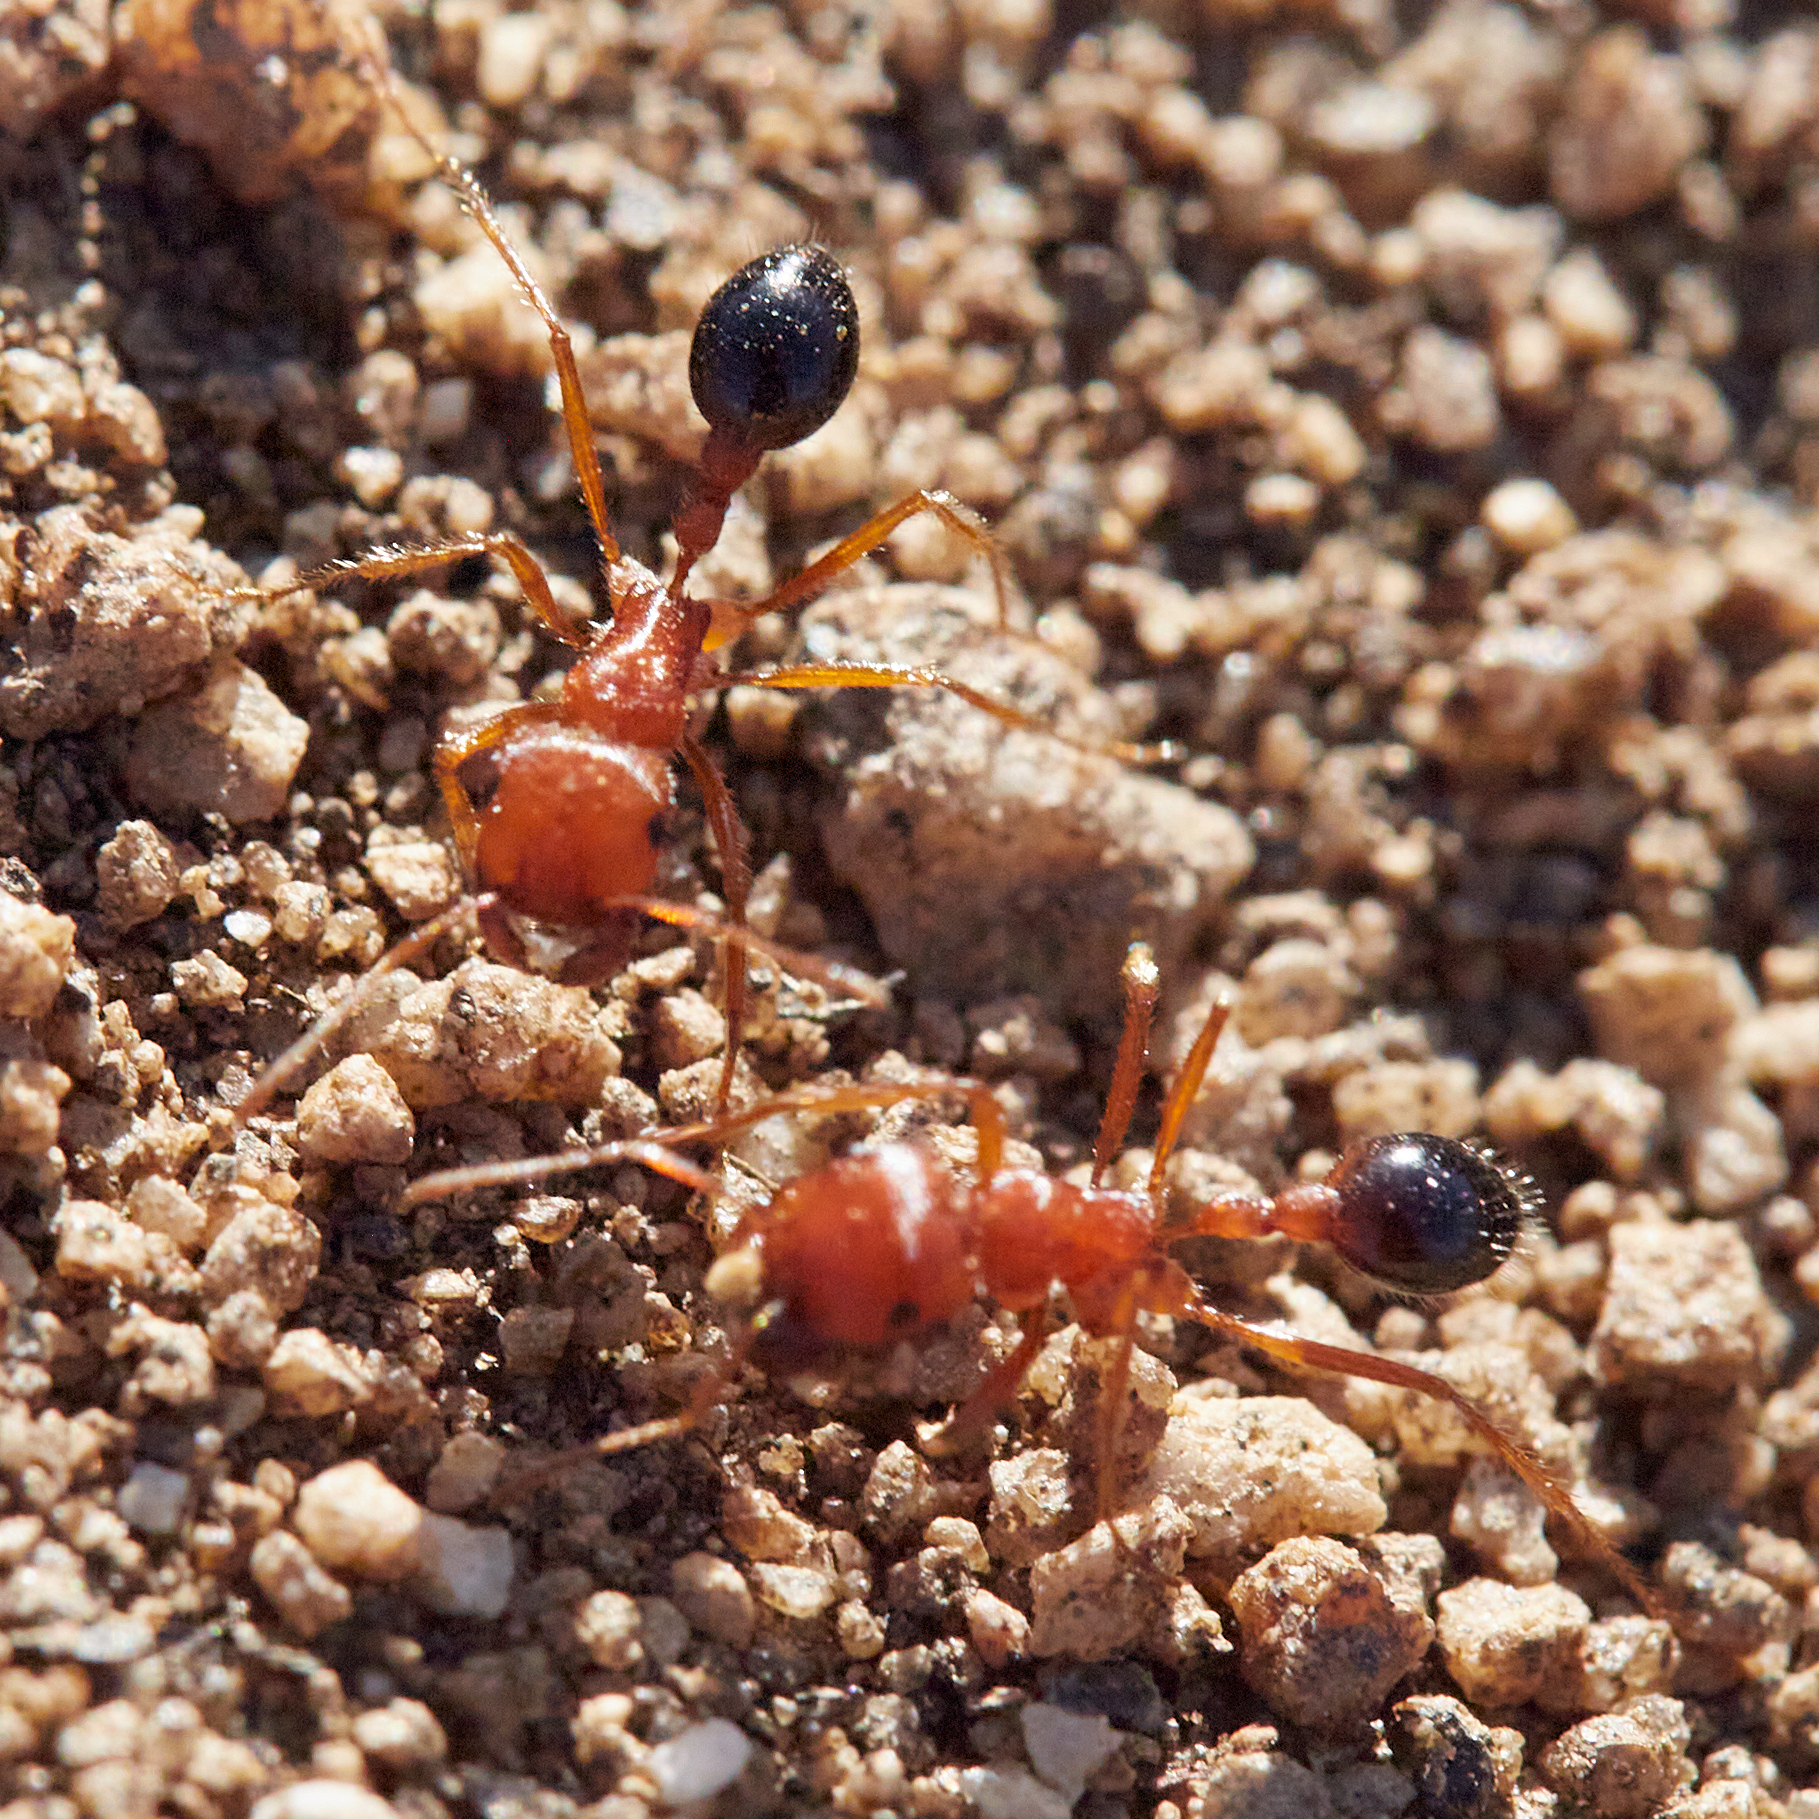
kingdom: Animalia
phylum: Arthropoda
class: Insecta
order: Hymenoptera
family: Formicidae
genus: Pogonomyrmex
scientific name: Pogonomyrmex californicus
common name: California harvester ant
